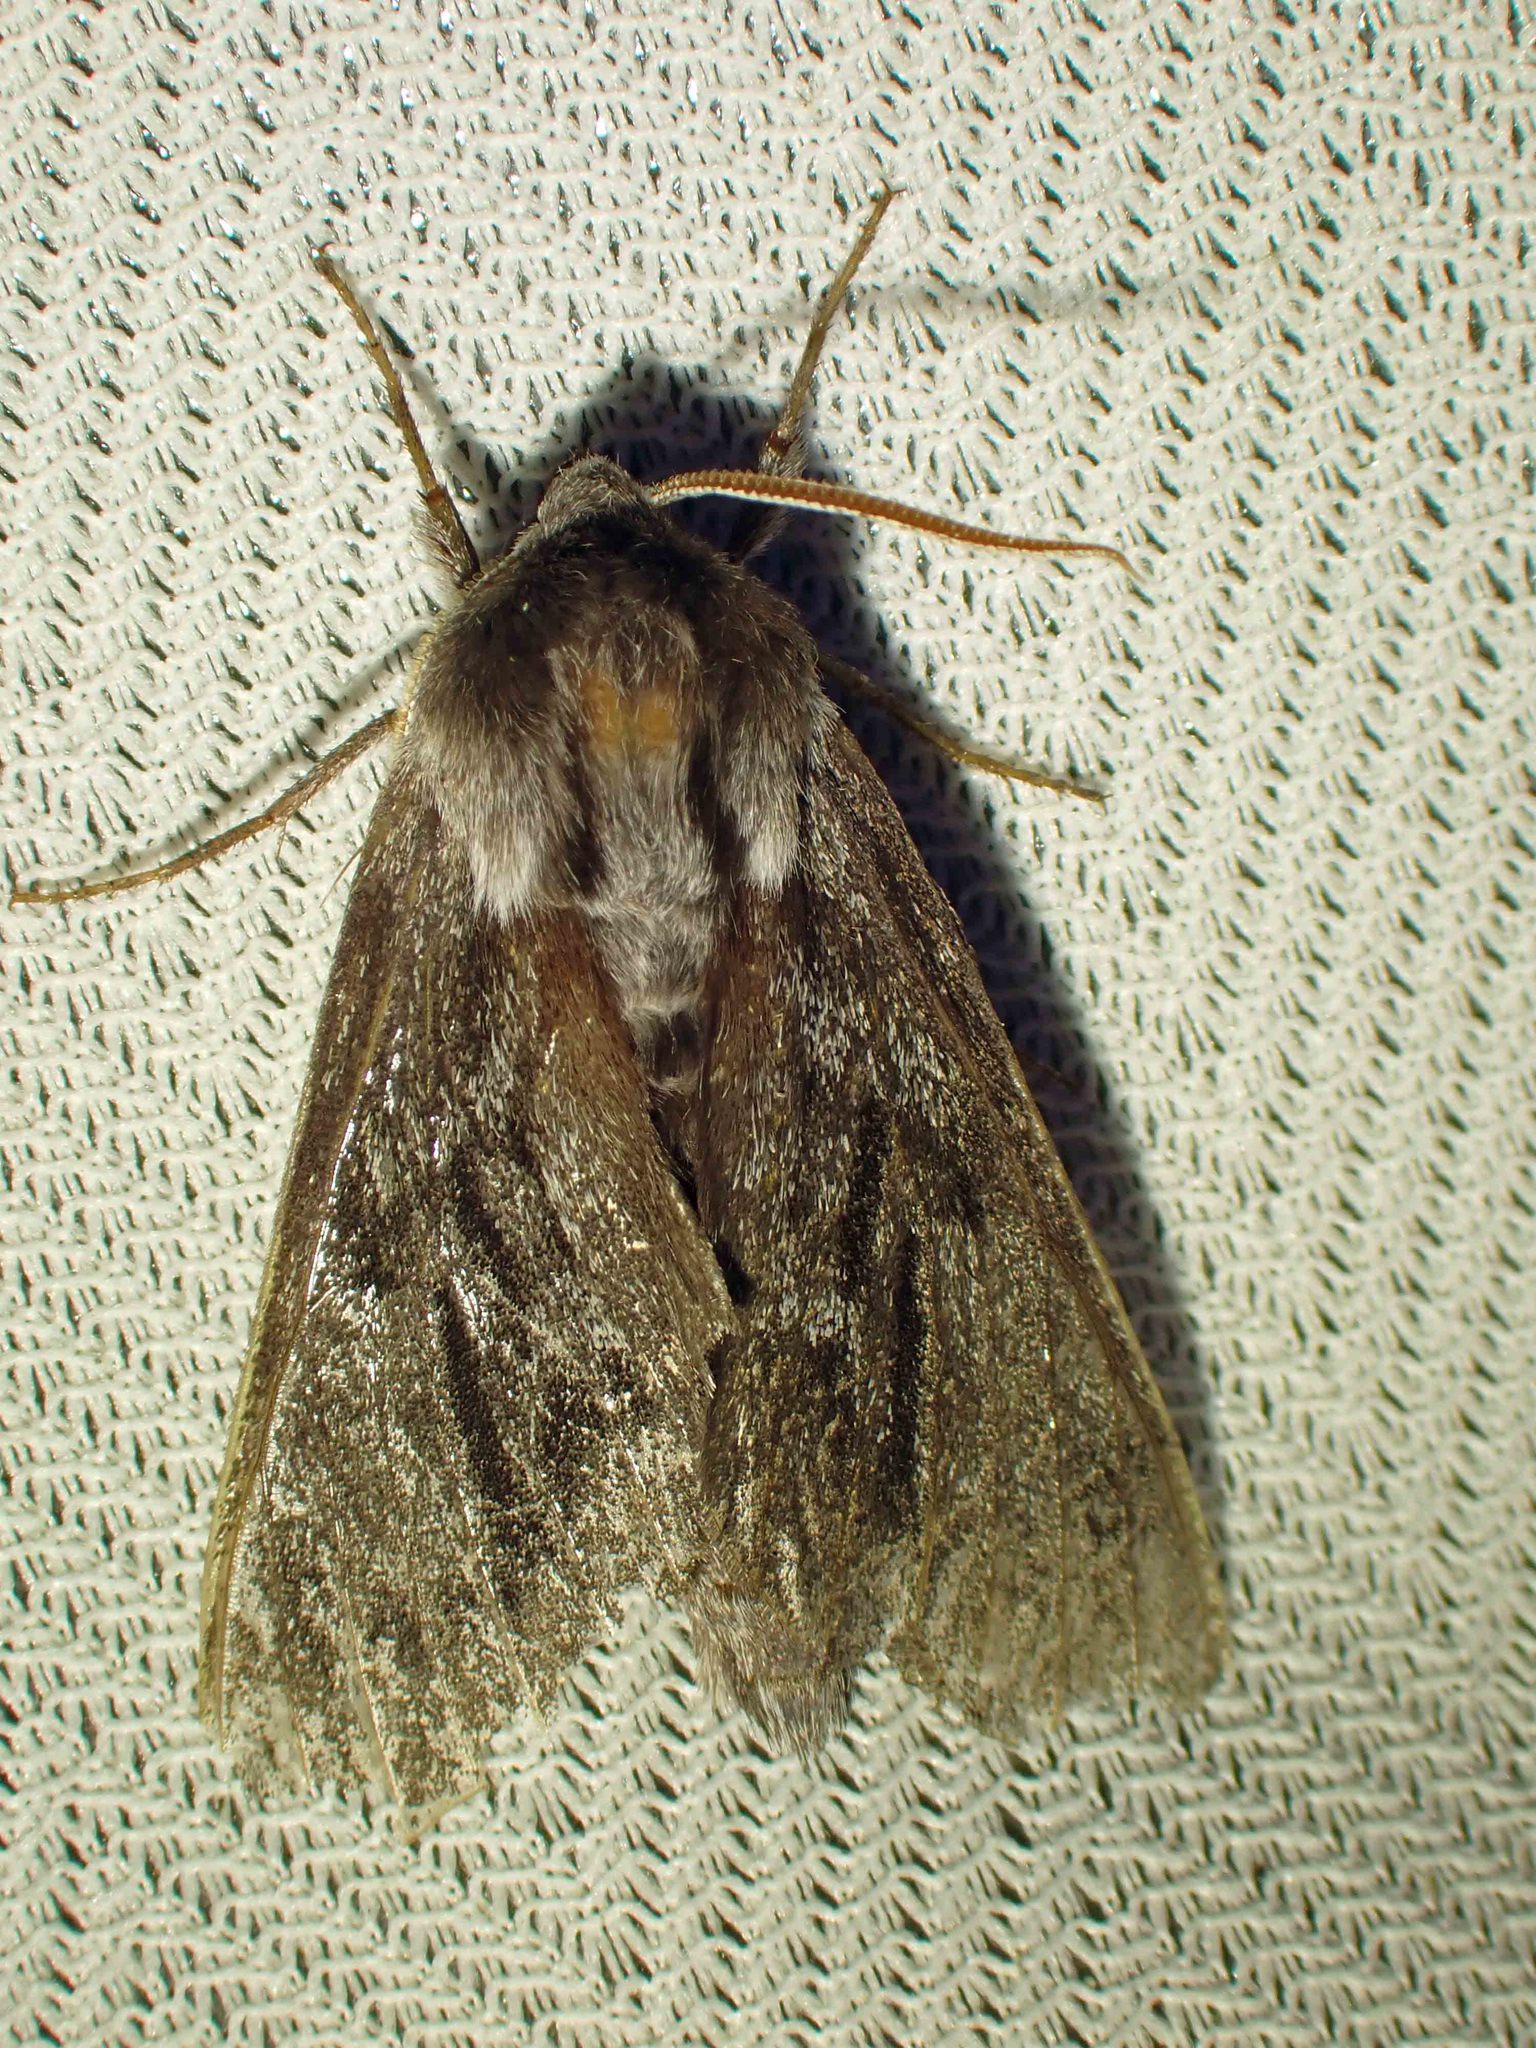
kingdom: Animalia
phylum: Arthropoda
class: Insecta
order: Lepidoptera
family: Sphingidae
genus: Lapara
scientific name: Lapara bombycoides
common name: Northern pine sphinx
